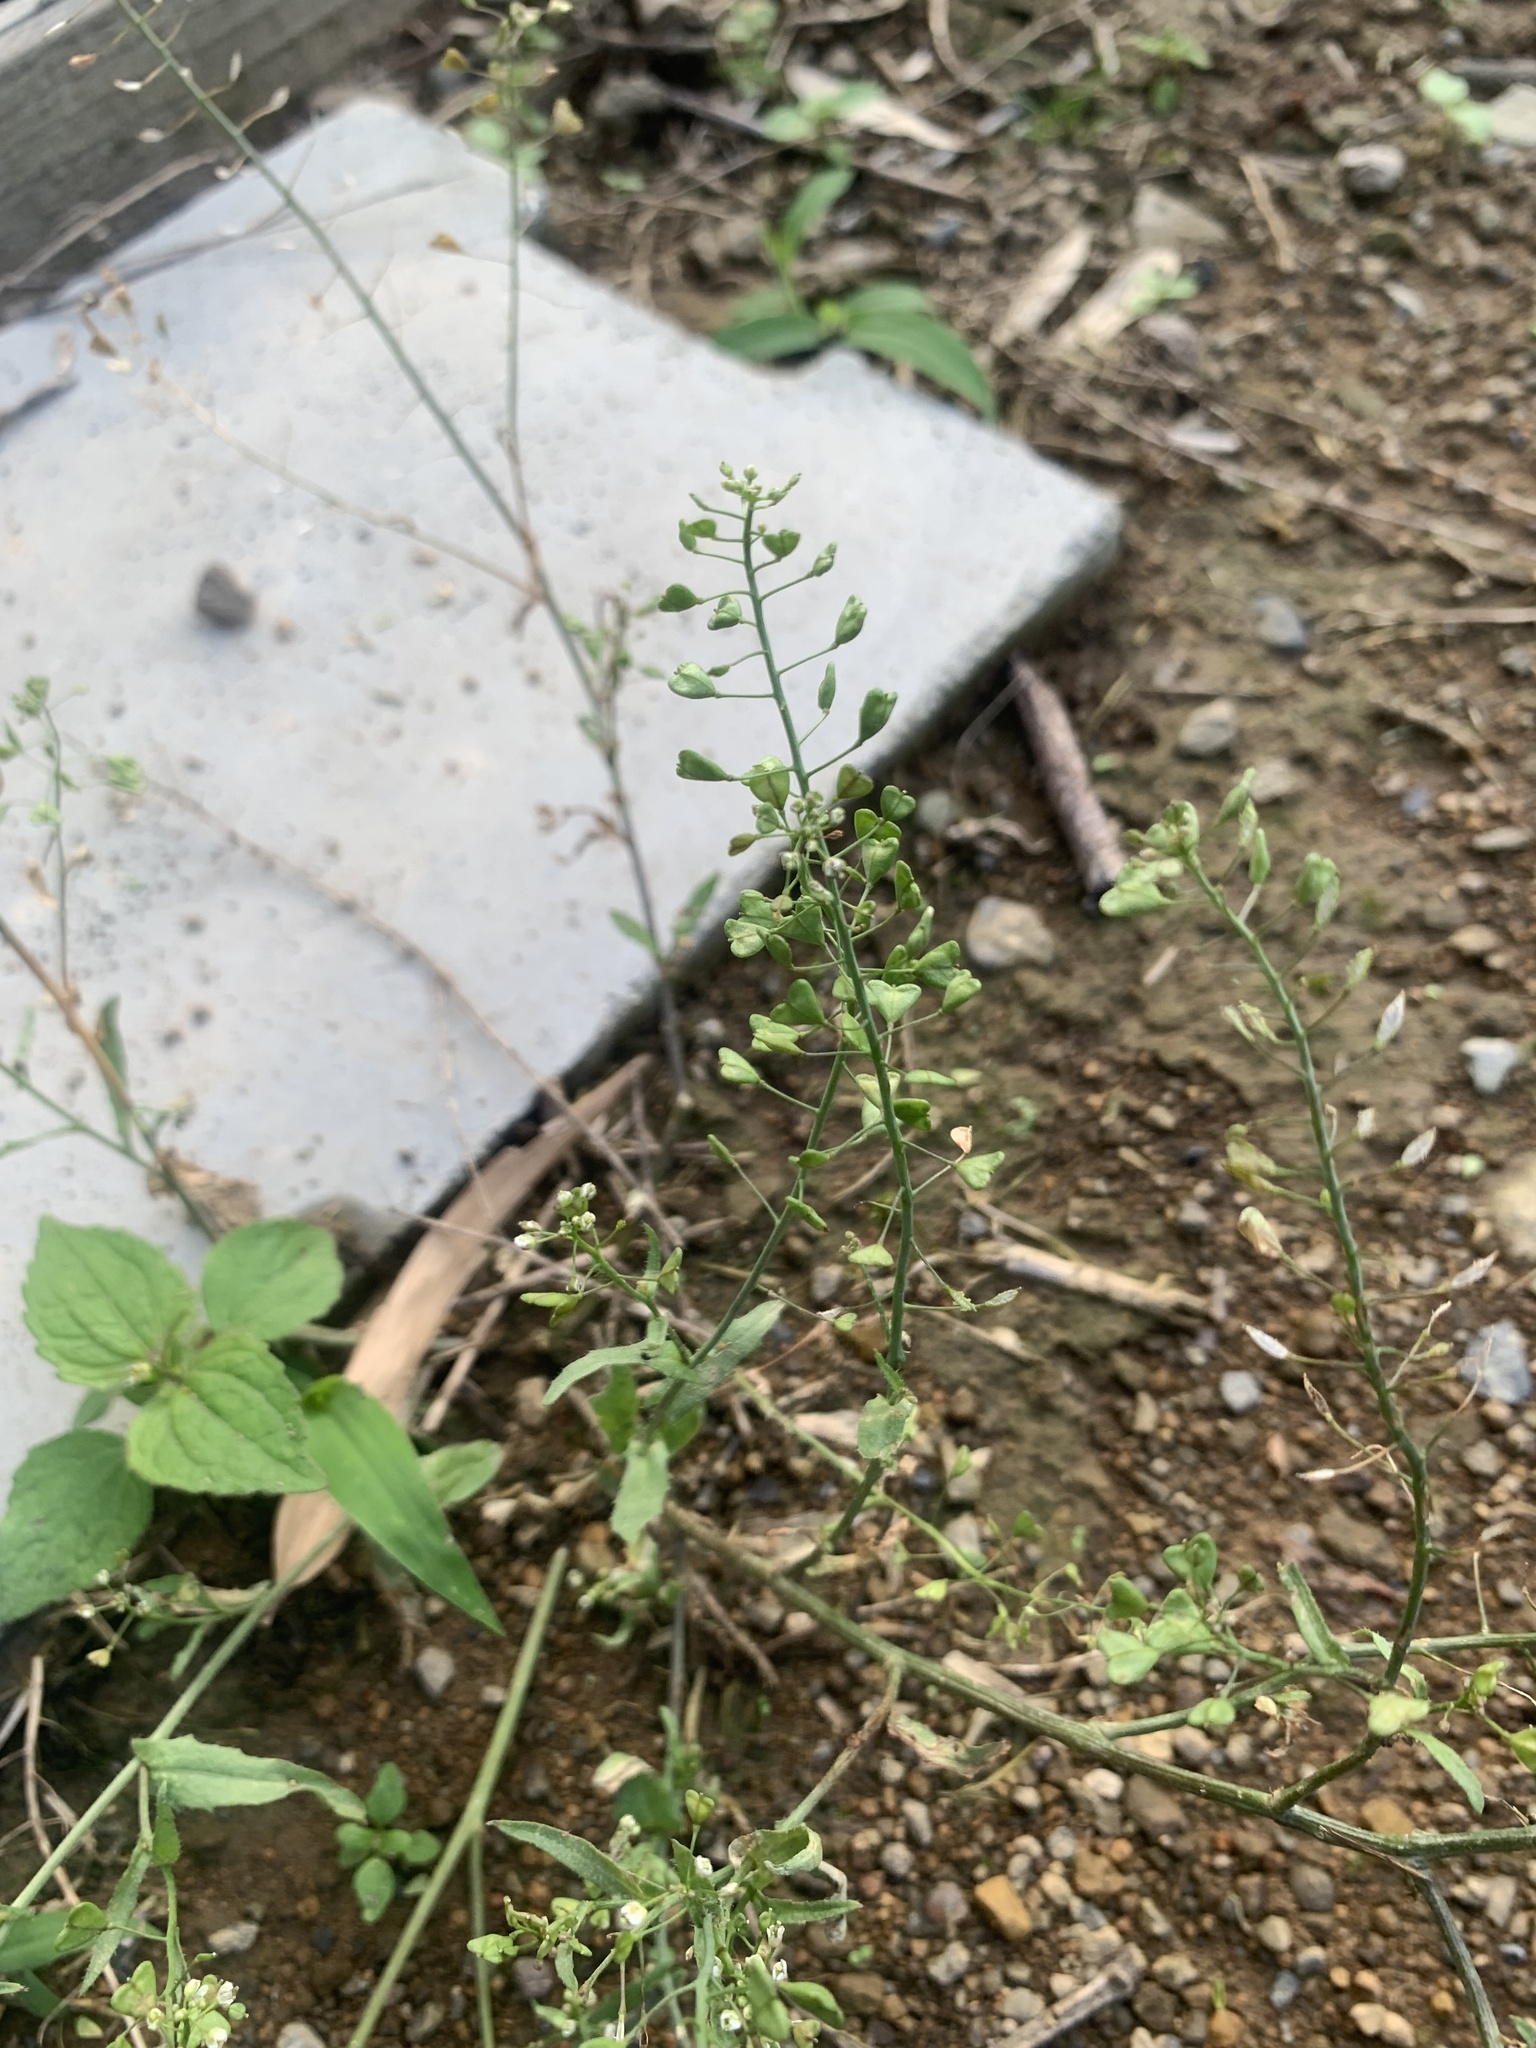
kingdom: Plantae
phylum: Tracheophyta
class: Magnoliopsida
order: Brassicales
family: Brassicaceae
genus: Capsella
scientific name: Capsella bursa-pastoris
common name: Shepherd's purse
